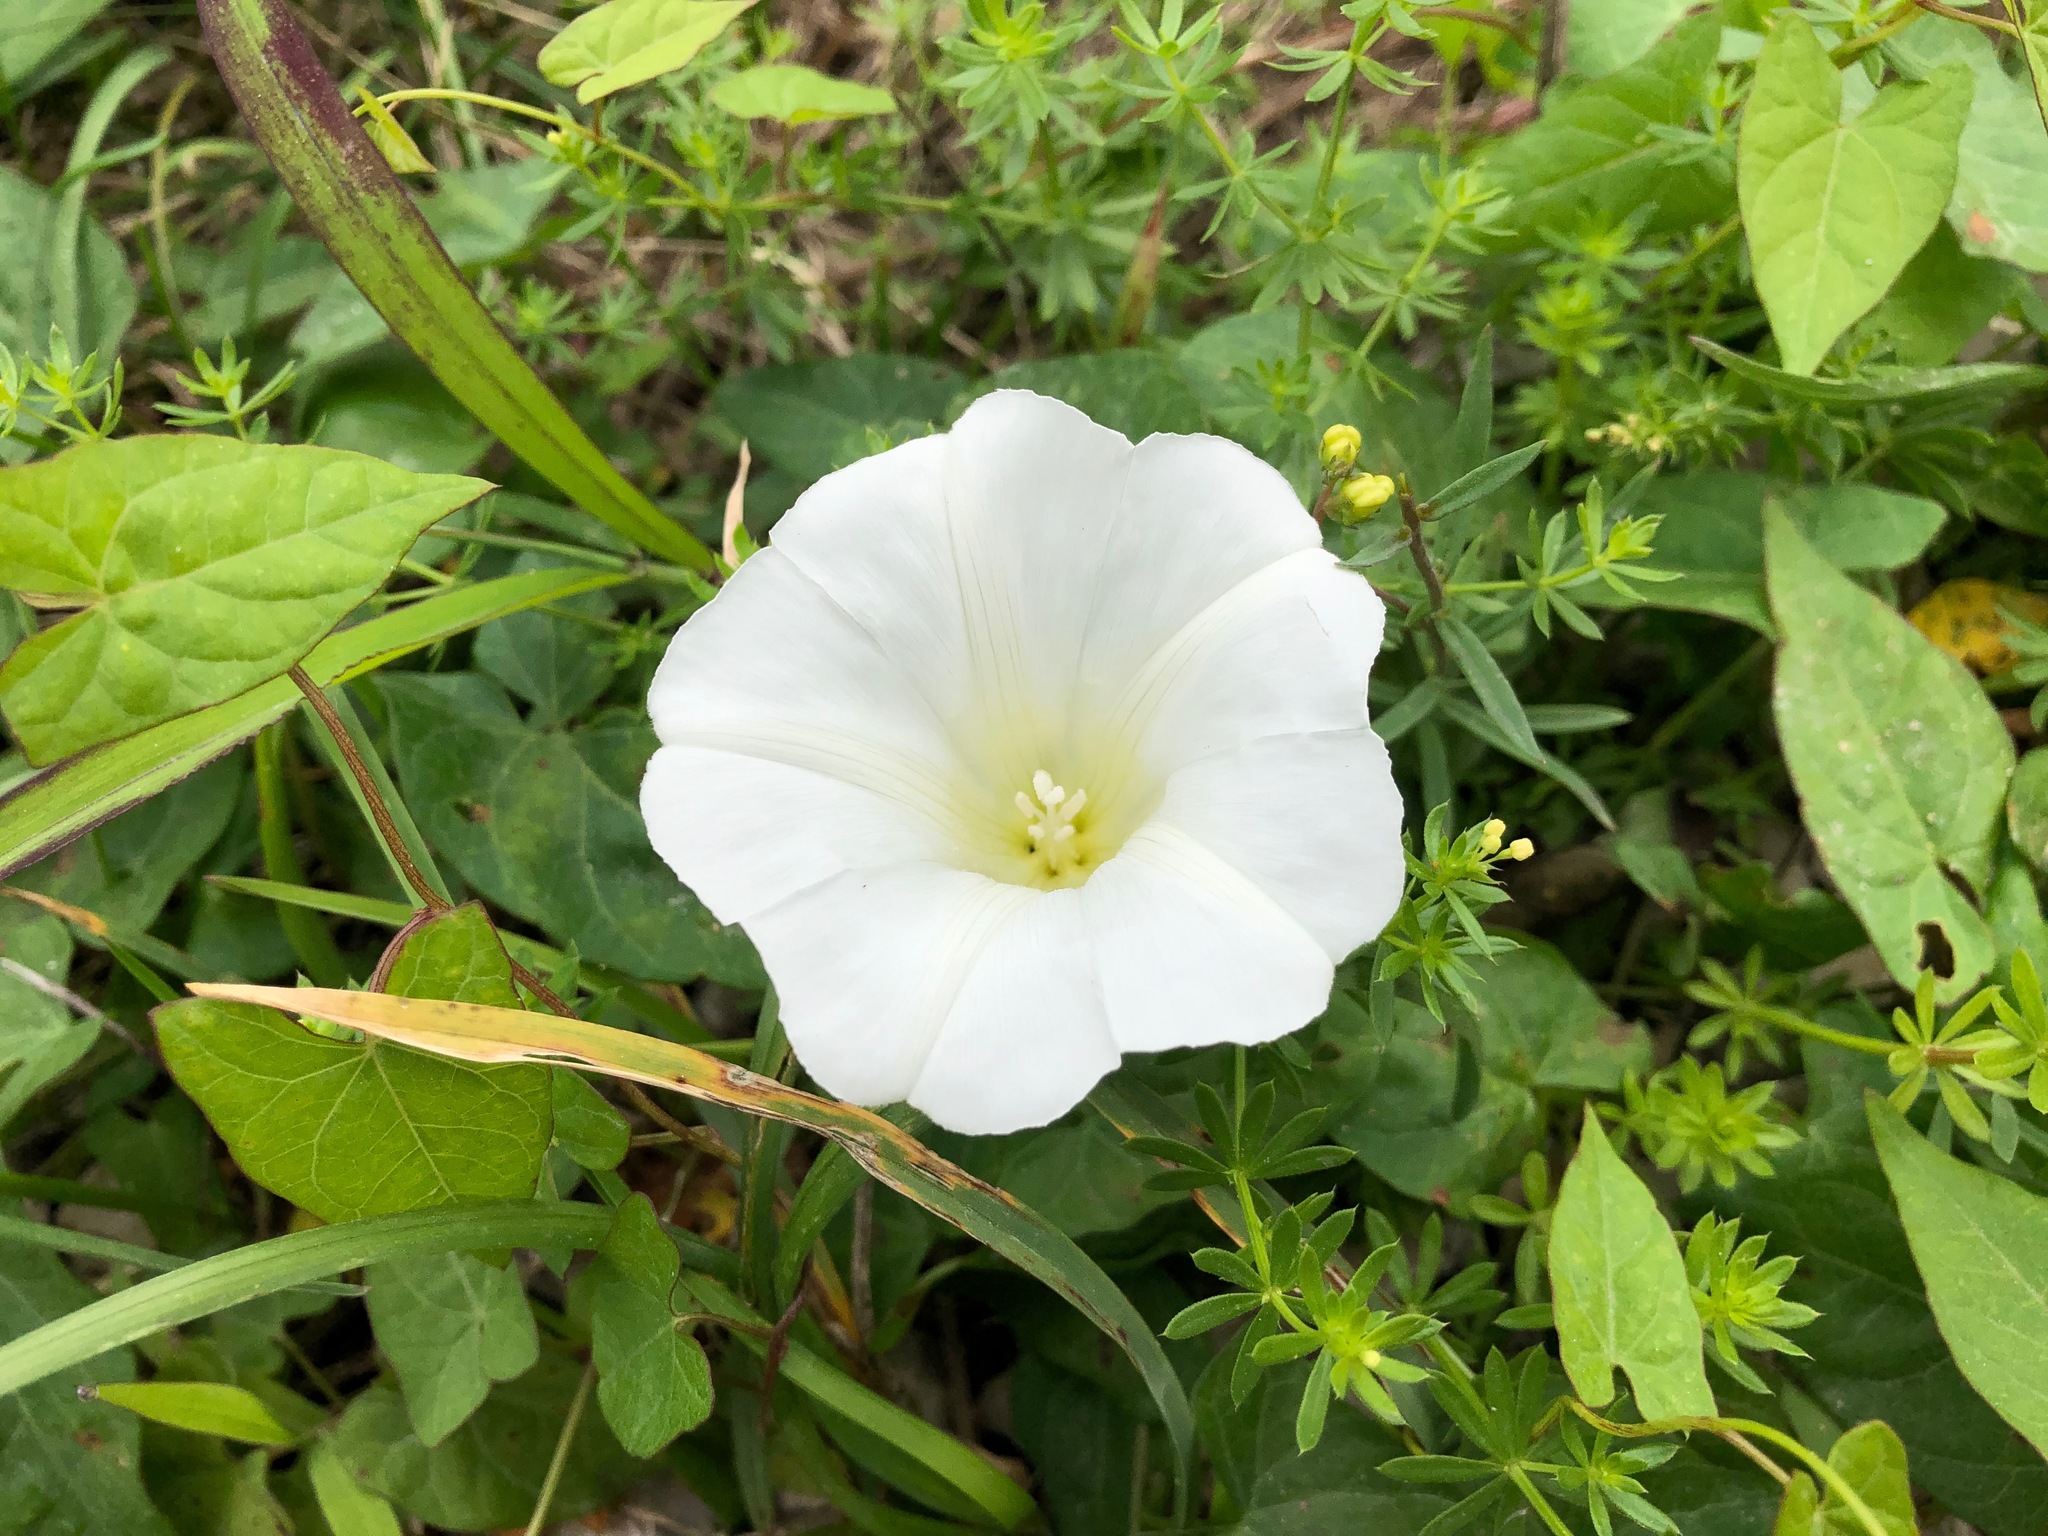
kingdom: Plantae
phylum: Tracheophyta
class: Magnoliopsida
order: Solanales
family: Convolvulaceae
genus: Calystegia
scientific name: Calystegia sepium
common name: Hedge bindweed
